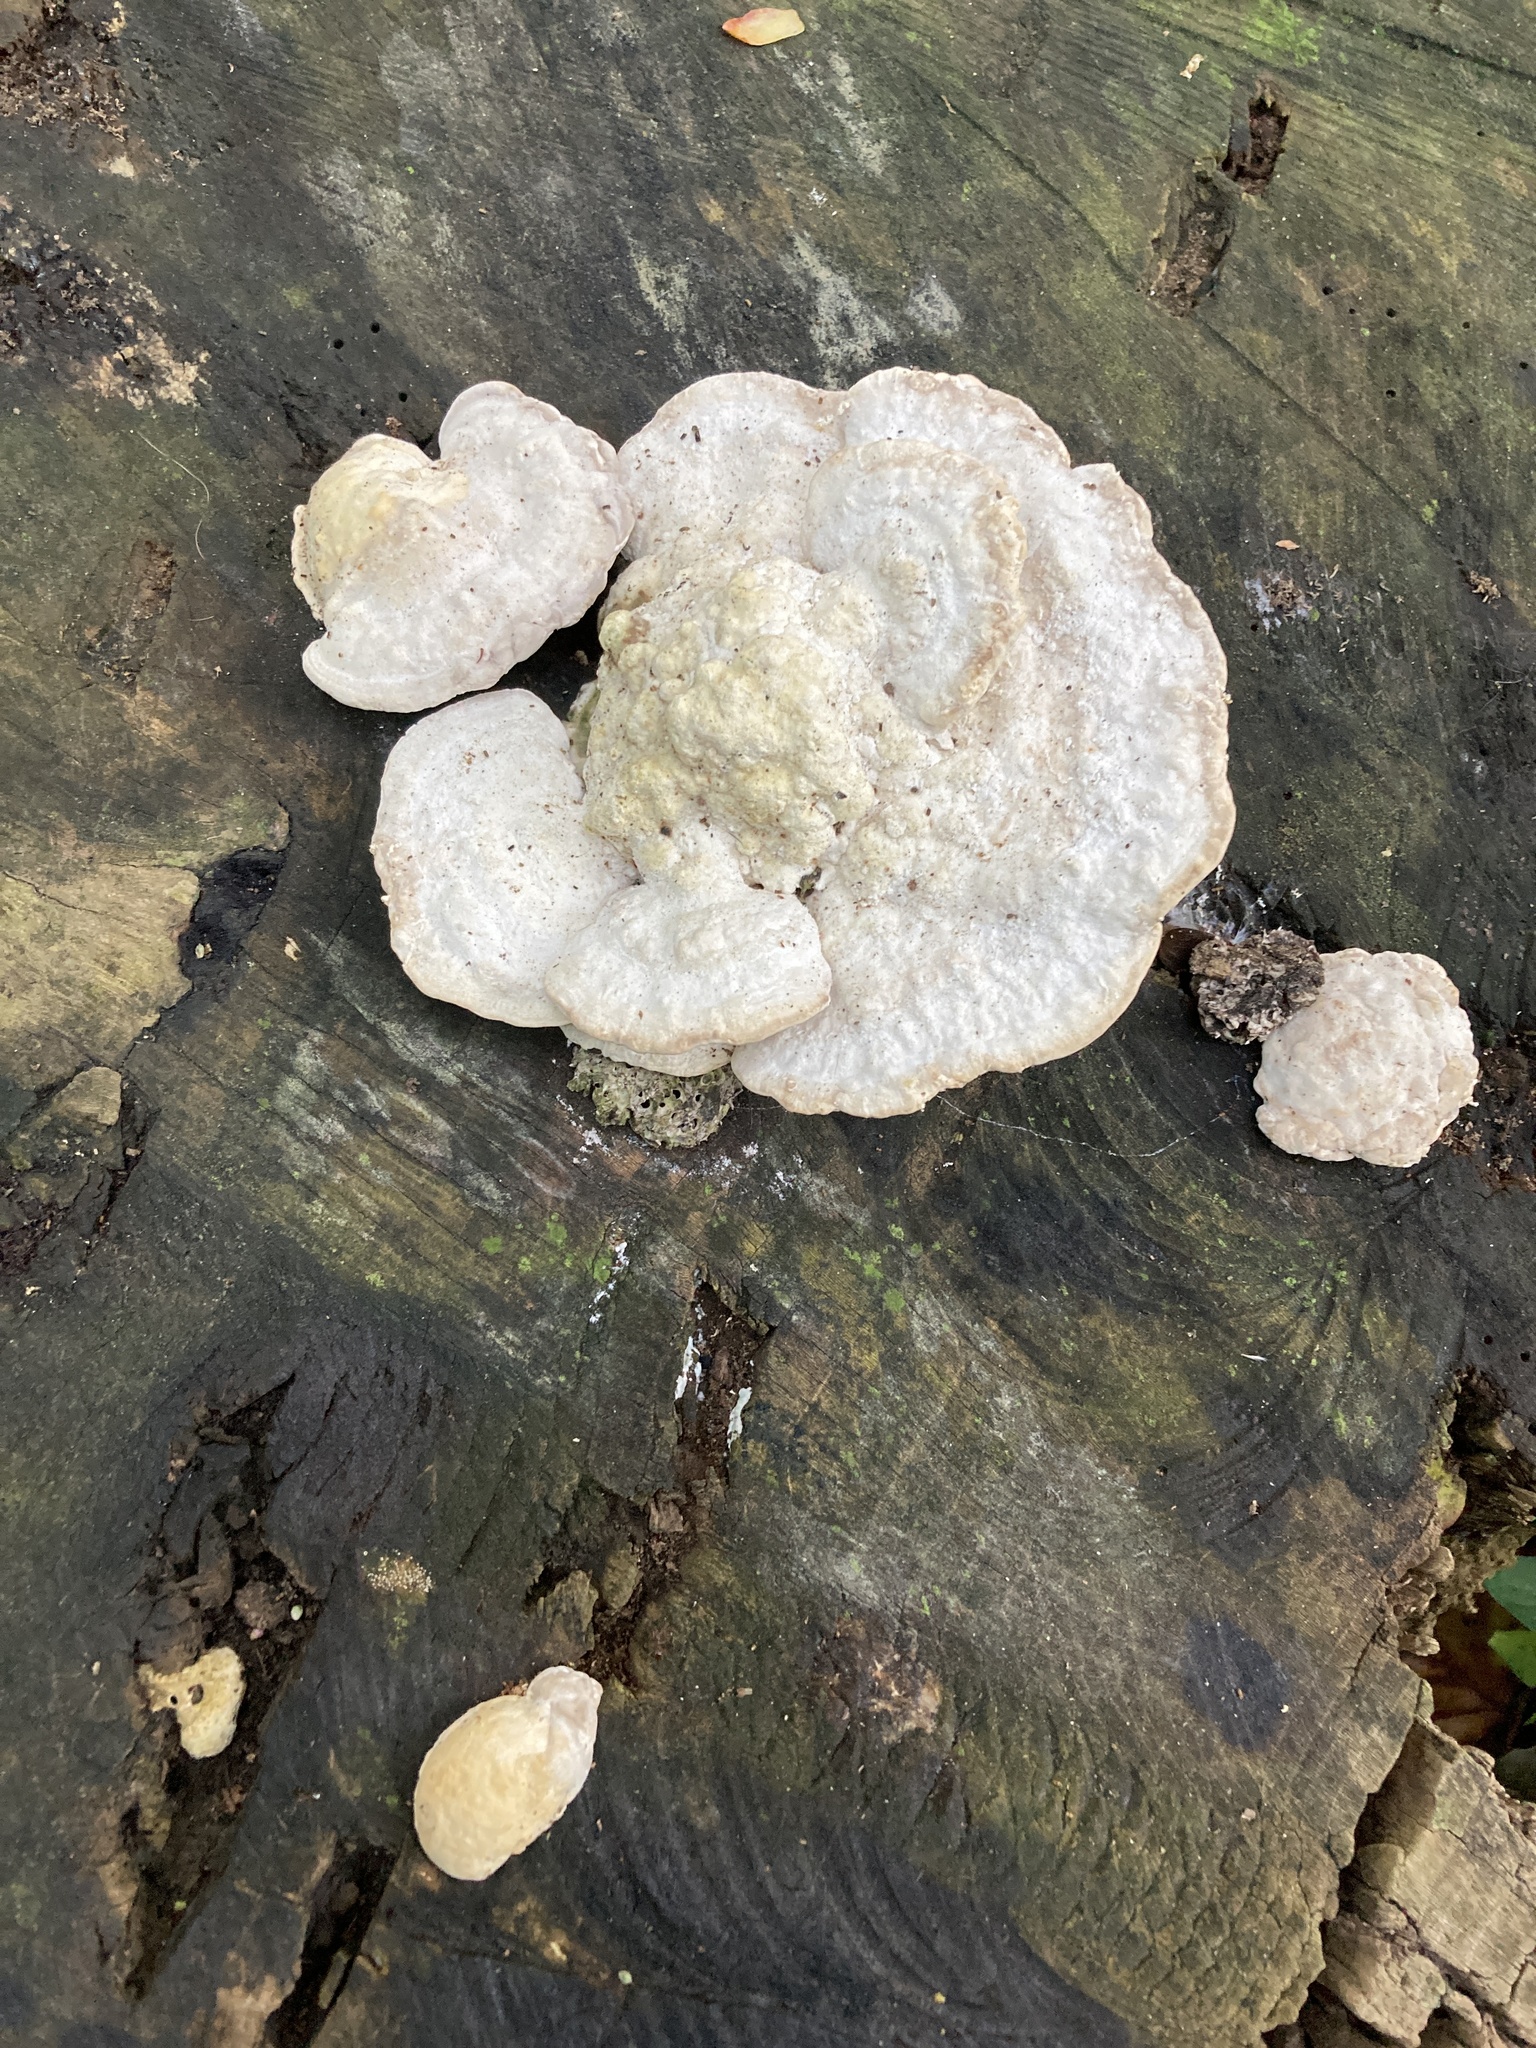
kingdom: Fungi
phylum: Basidiomycota
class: Agaricomycetes
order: Polyporales
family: Polyporaceae
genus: Trametes
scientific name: Trametes gibbosa
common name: Lumpy bracket
